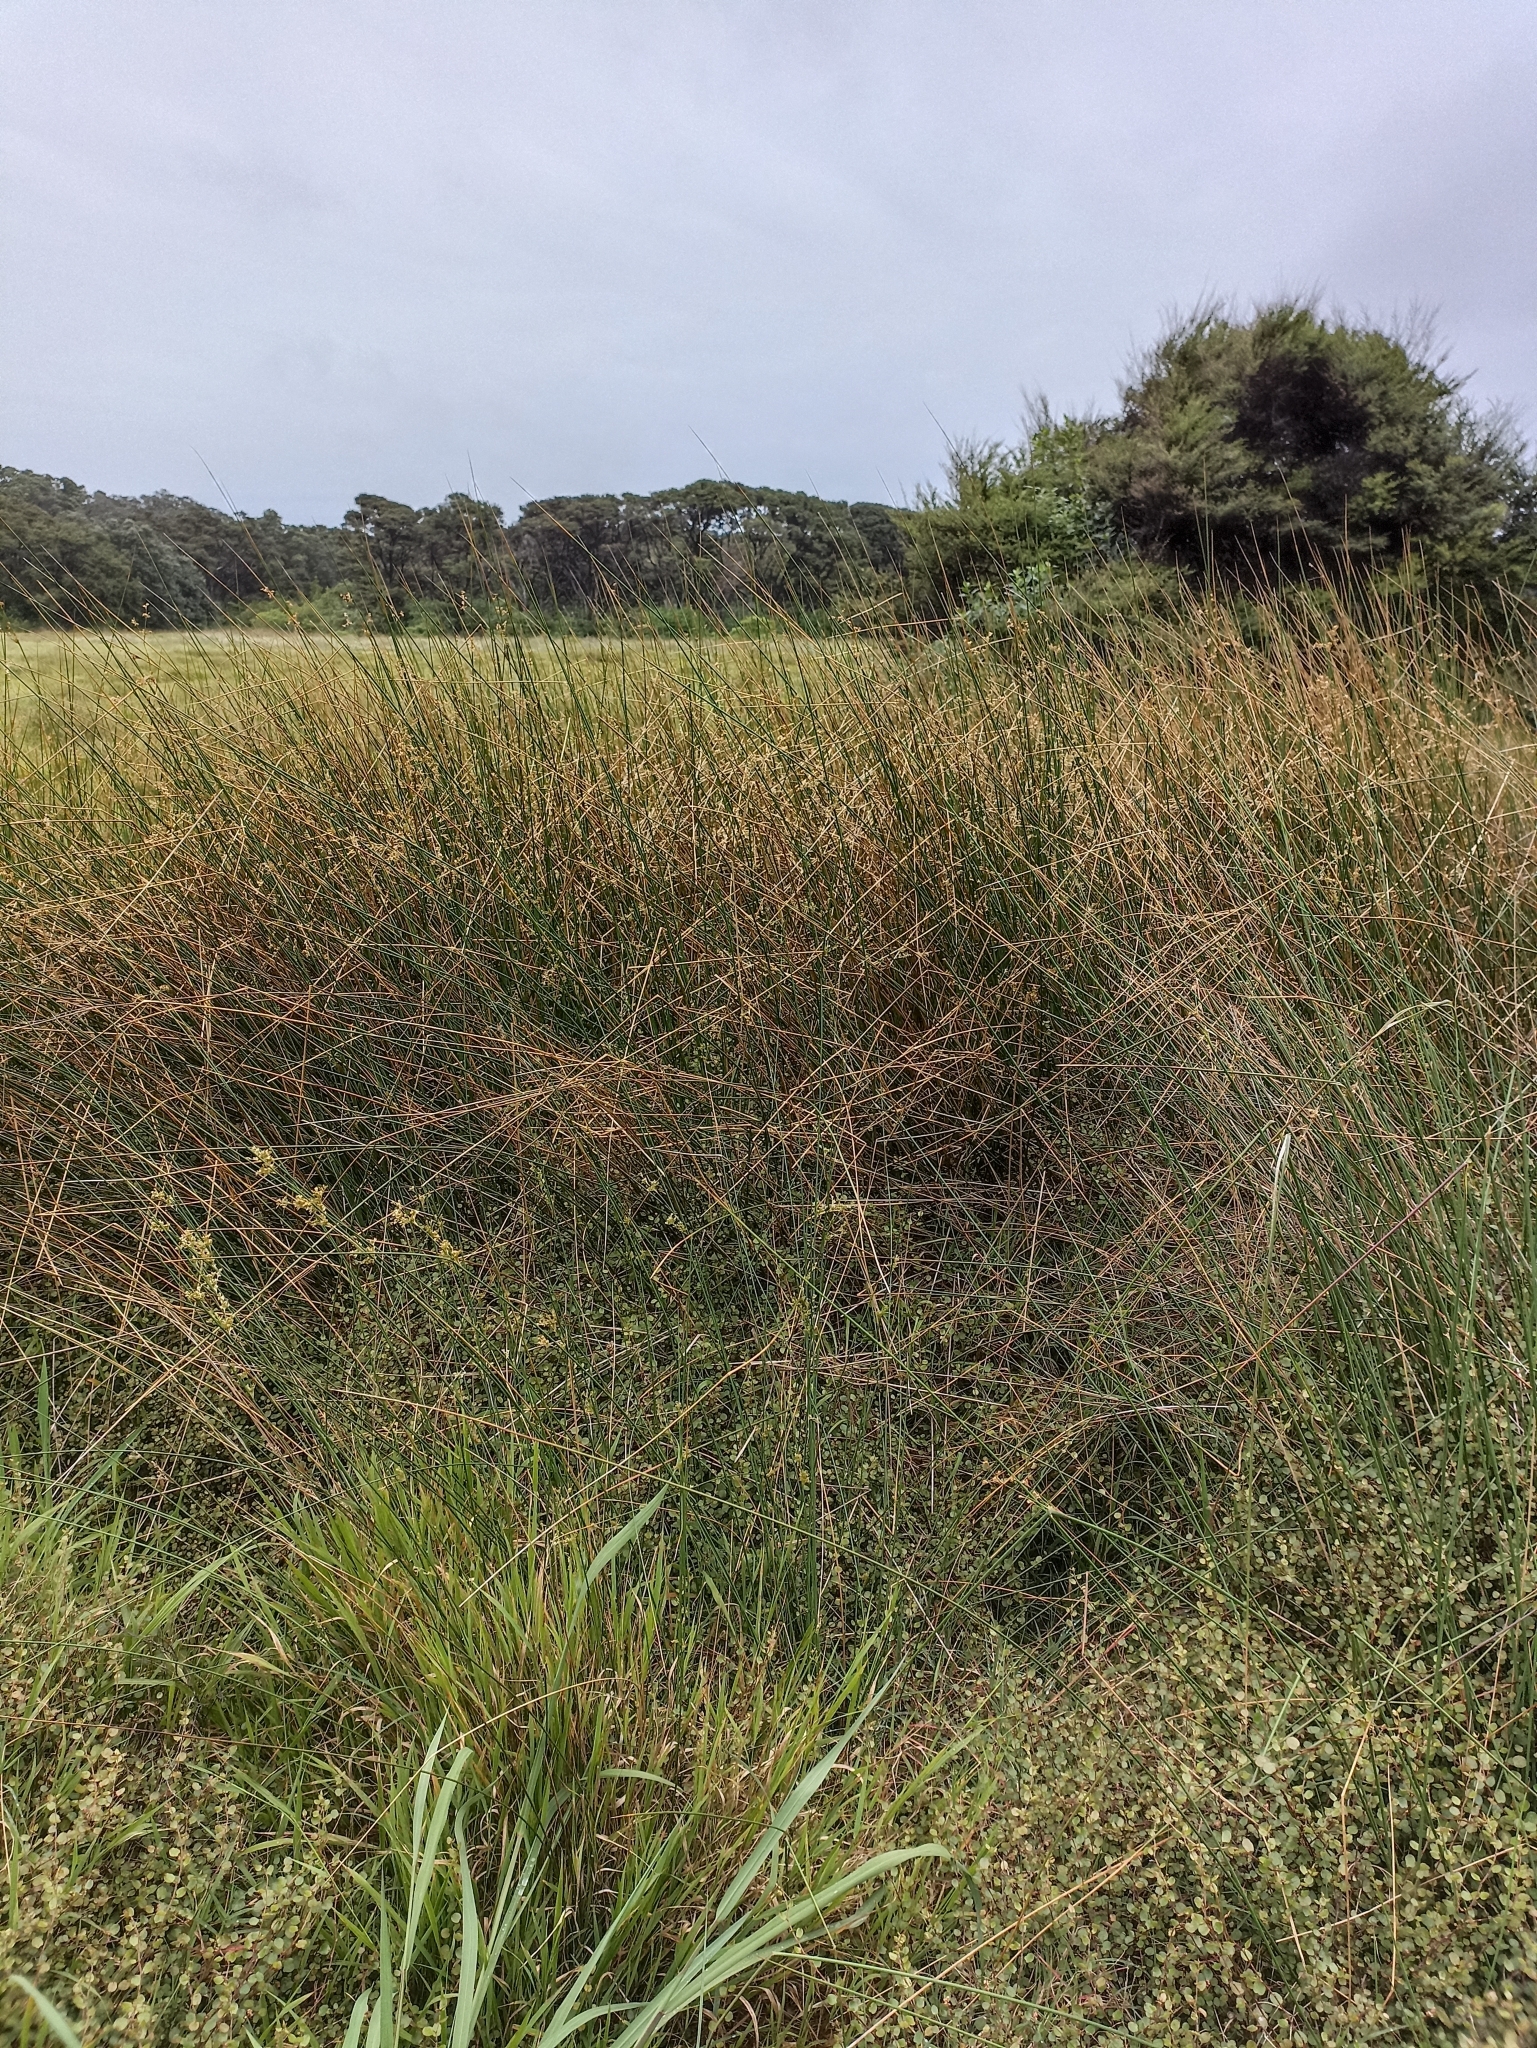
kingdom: Plantae
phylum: Tracheophyta
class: Liliopsida
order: Poales
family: Juncaceae
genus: Juncus
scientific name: Juncus australis
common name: Austral rush
